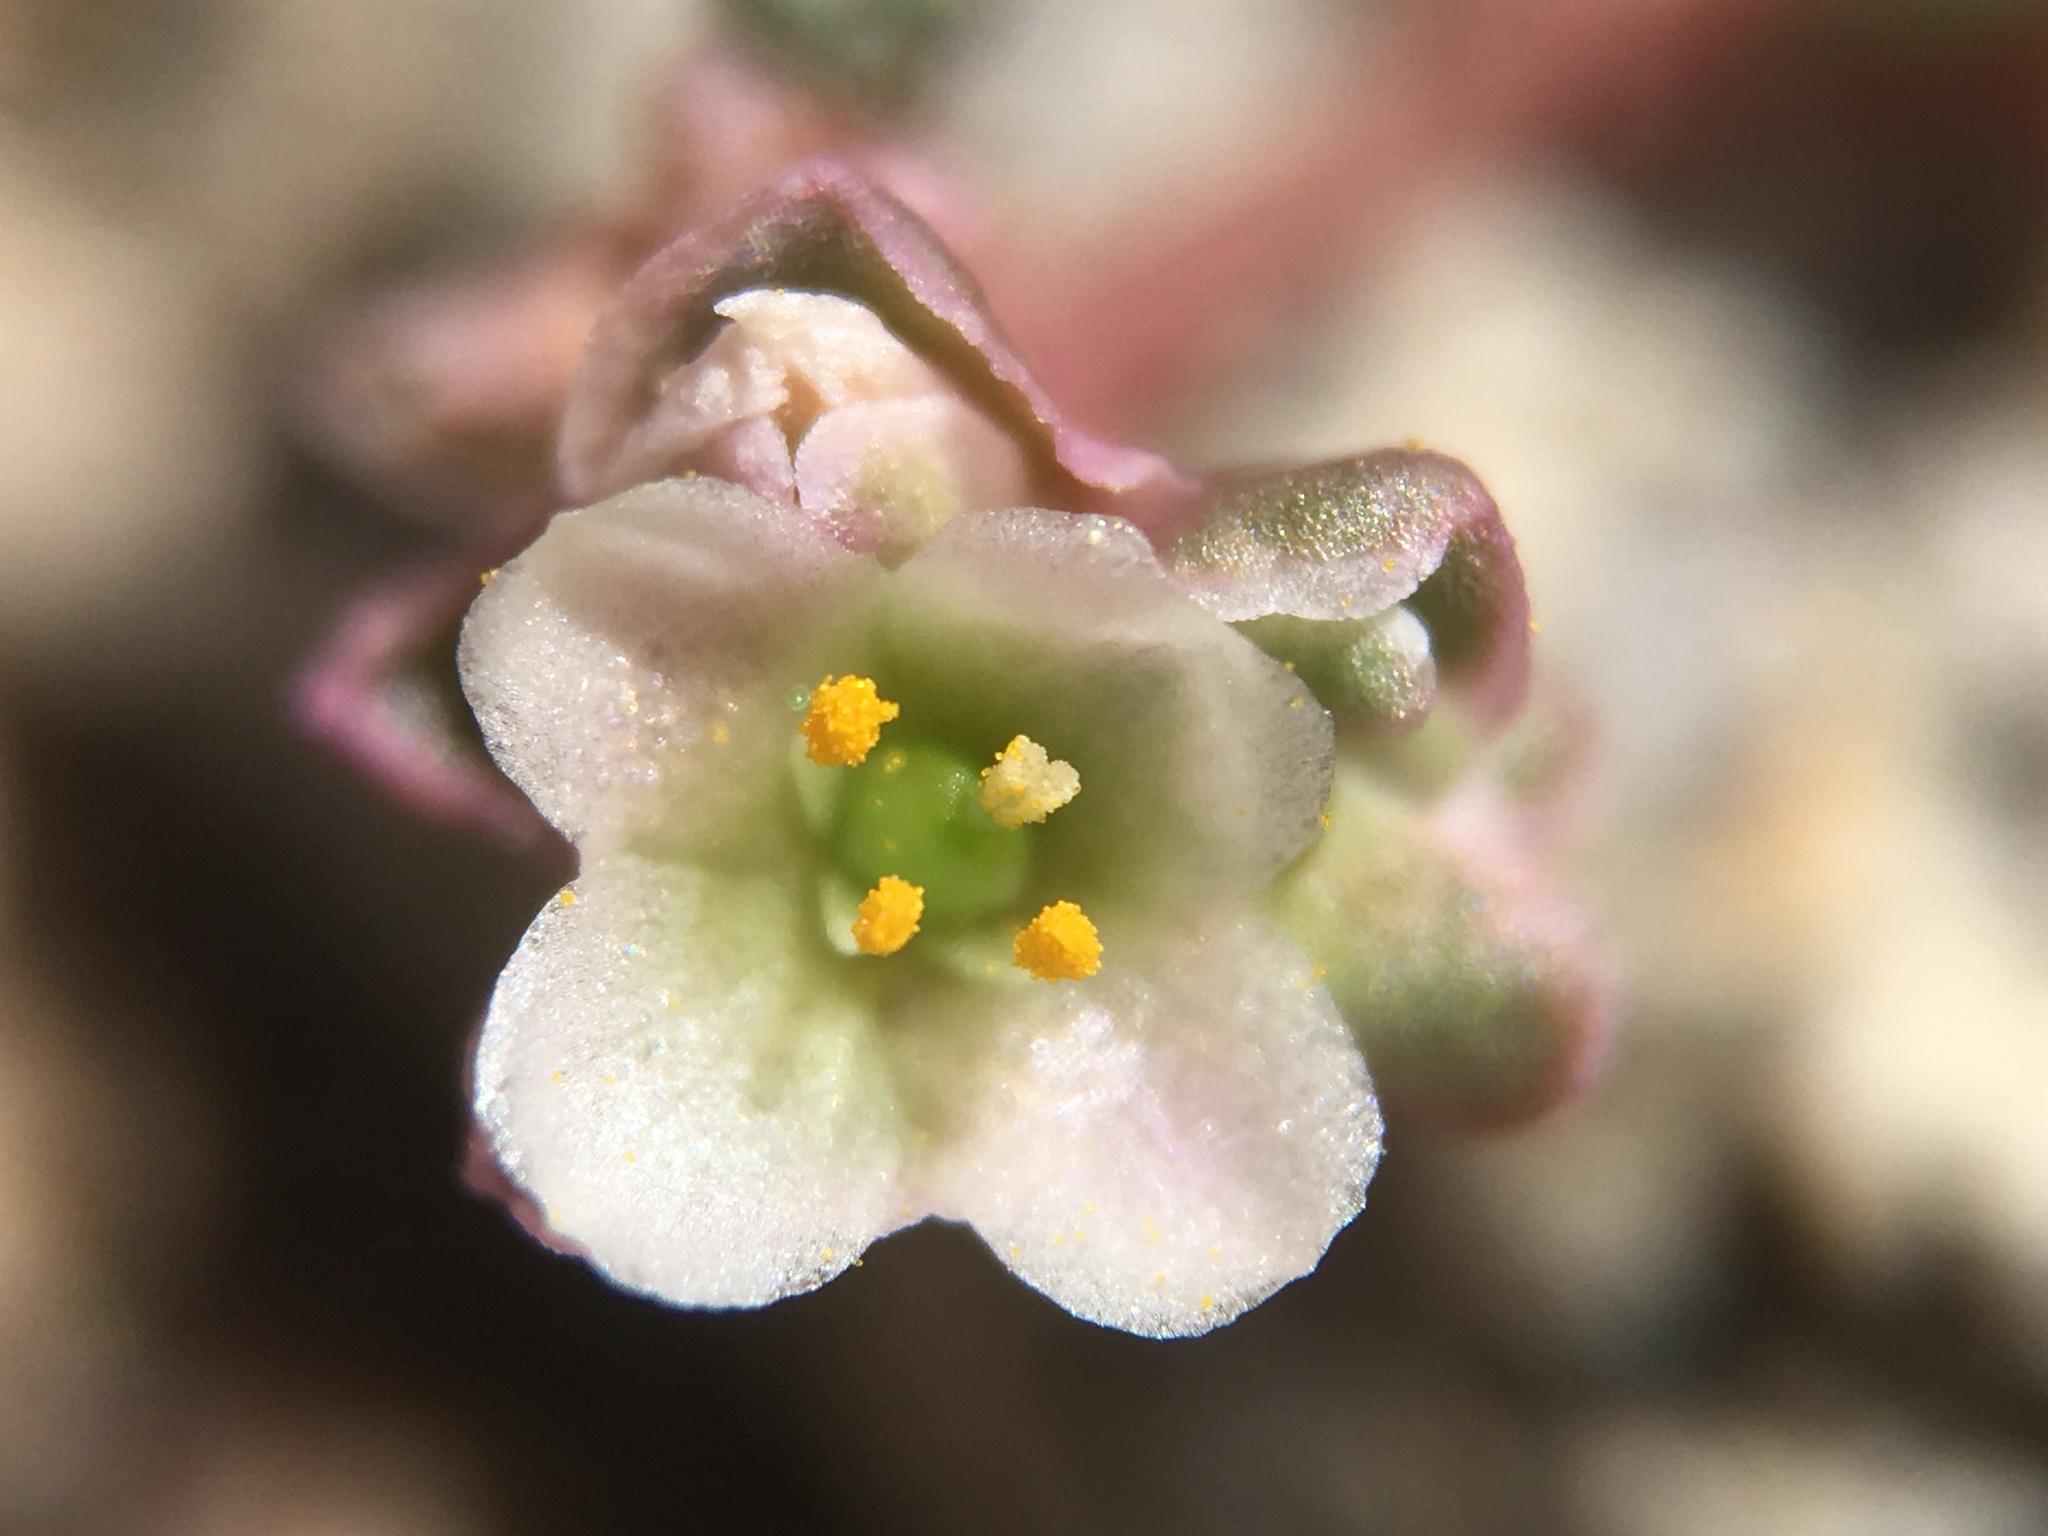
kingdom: Plantae
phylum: Tracheophyta
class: Magnoliopsida
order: Caryophyllales
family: Montiaceae
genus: Calyptridium
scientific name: Calyptridium parryi
